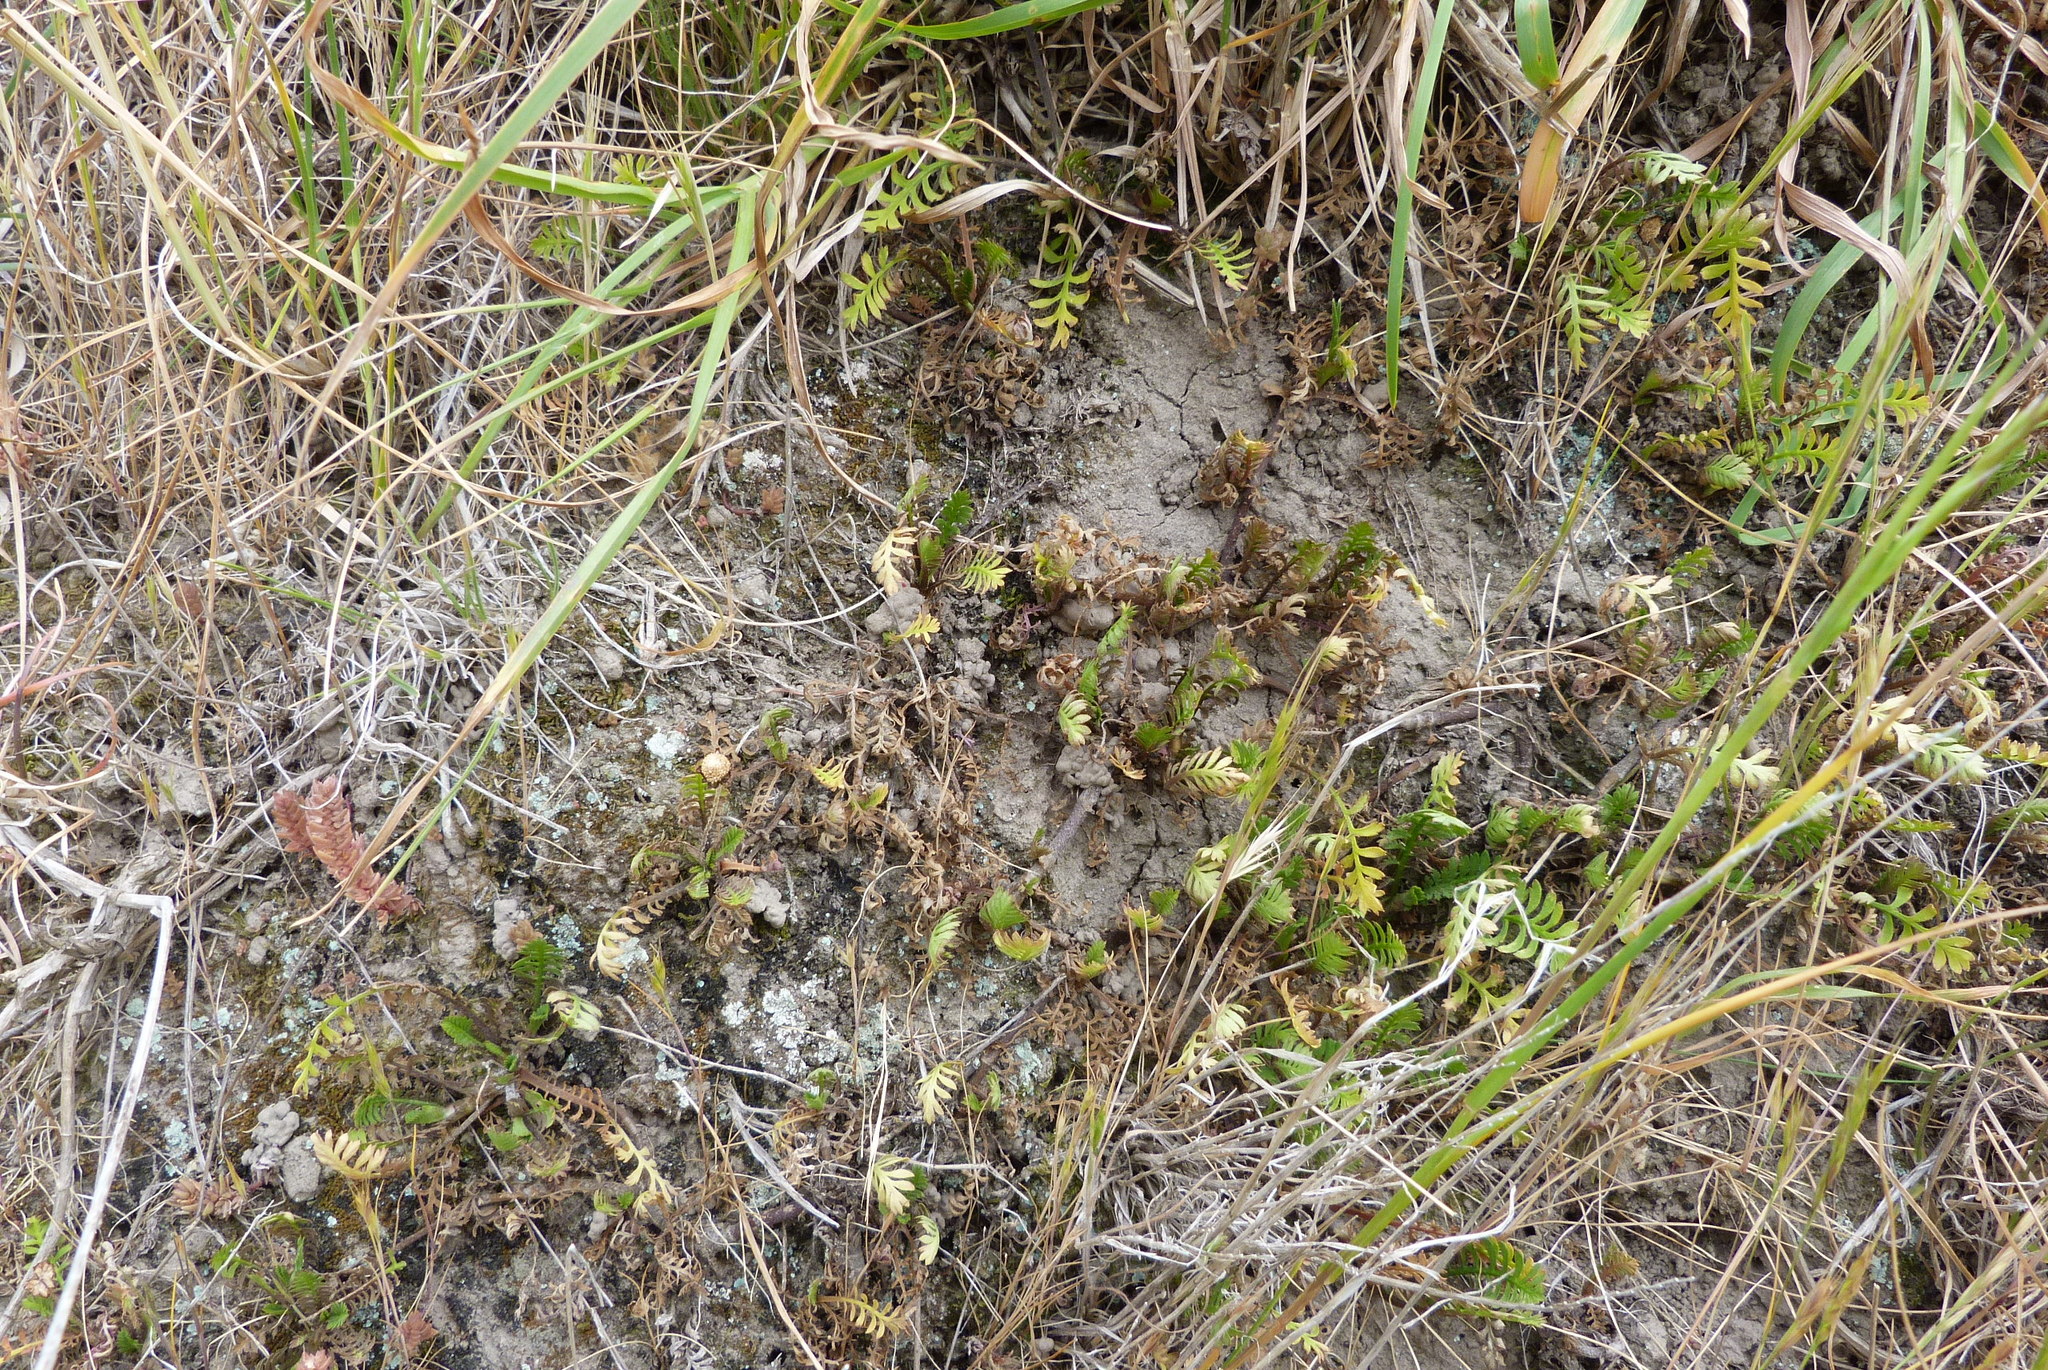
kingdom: Plantae
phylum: Tracheophyta
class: Magnoliopsida
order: Asterales
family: Asteraceae
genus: Leptinella
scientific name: Leptinella minor
